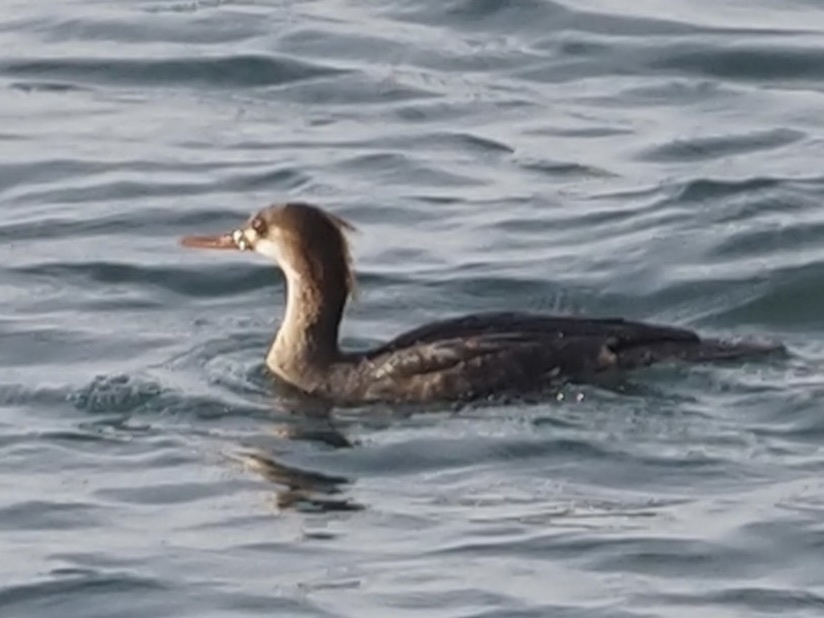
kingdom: Animalia
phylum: Chordata
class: Aves
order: Anseriformes
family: Anatidae
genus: Mergus
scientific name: Mergus serrator
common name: Red-breasted merganser
